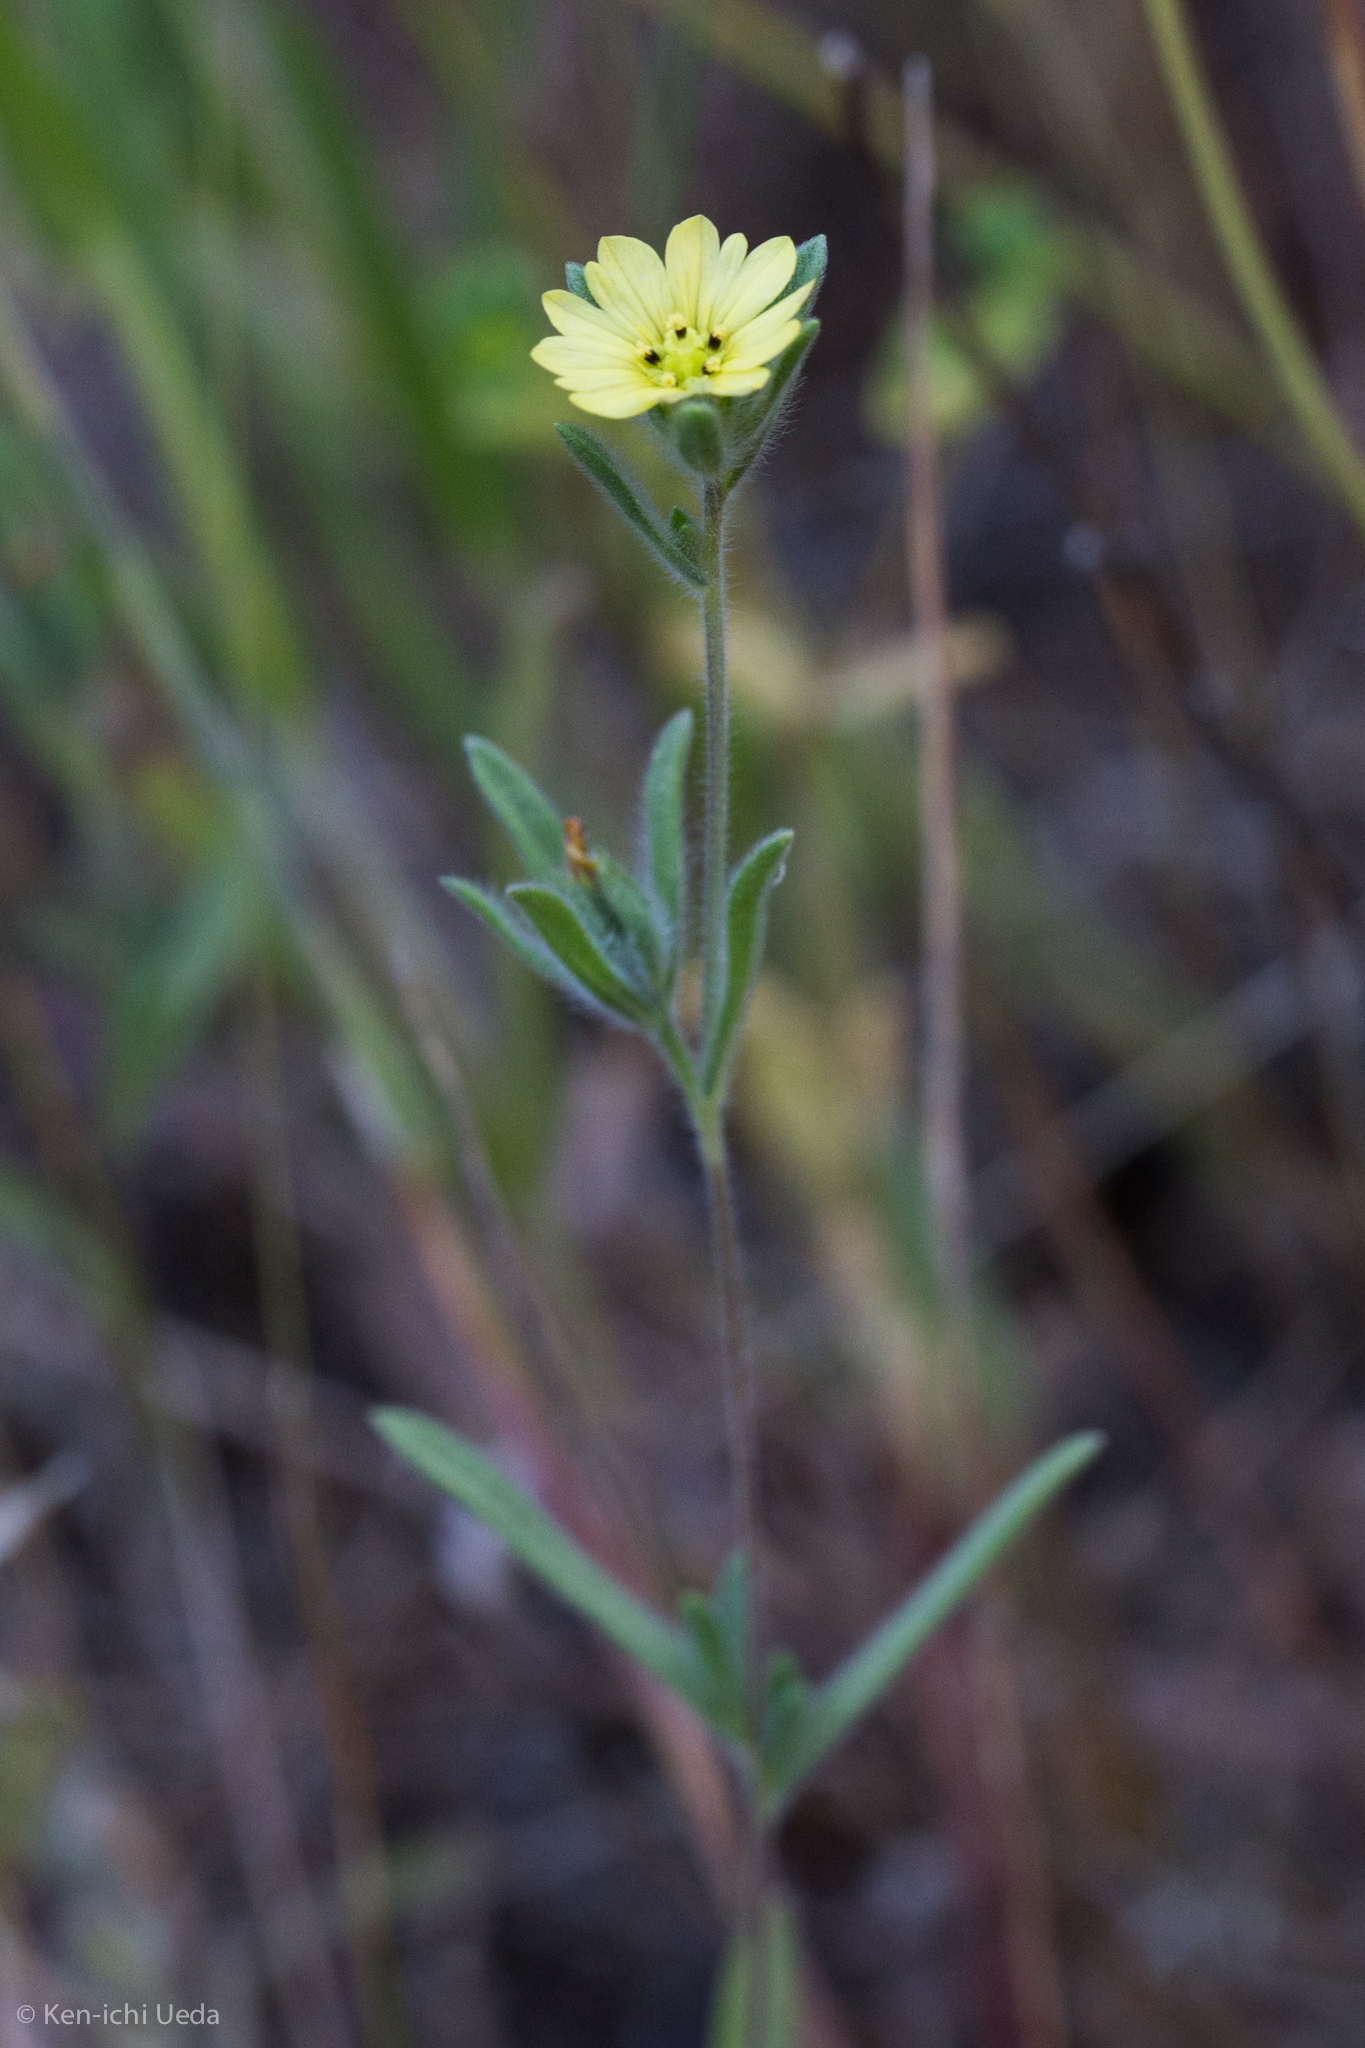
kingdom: Plantae
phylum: Tracheophyta
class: Magnoliopsida
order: Asterales
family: Asteraceae
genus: Lagophylla
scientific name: Lagophylla ramosissima
